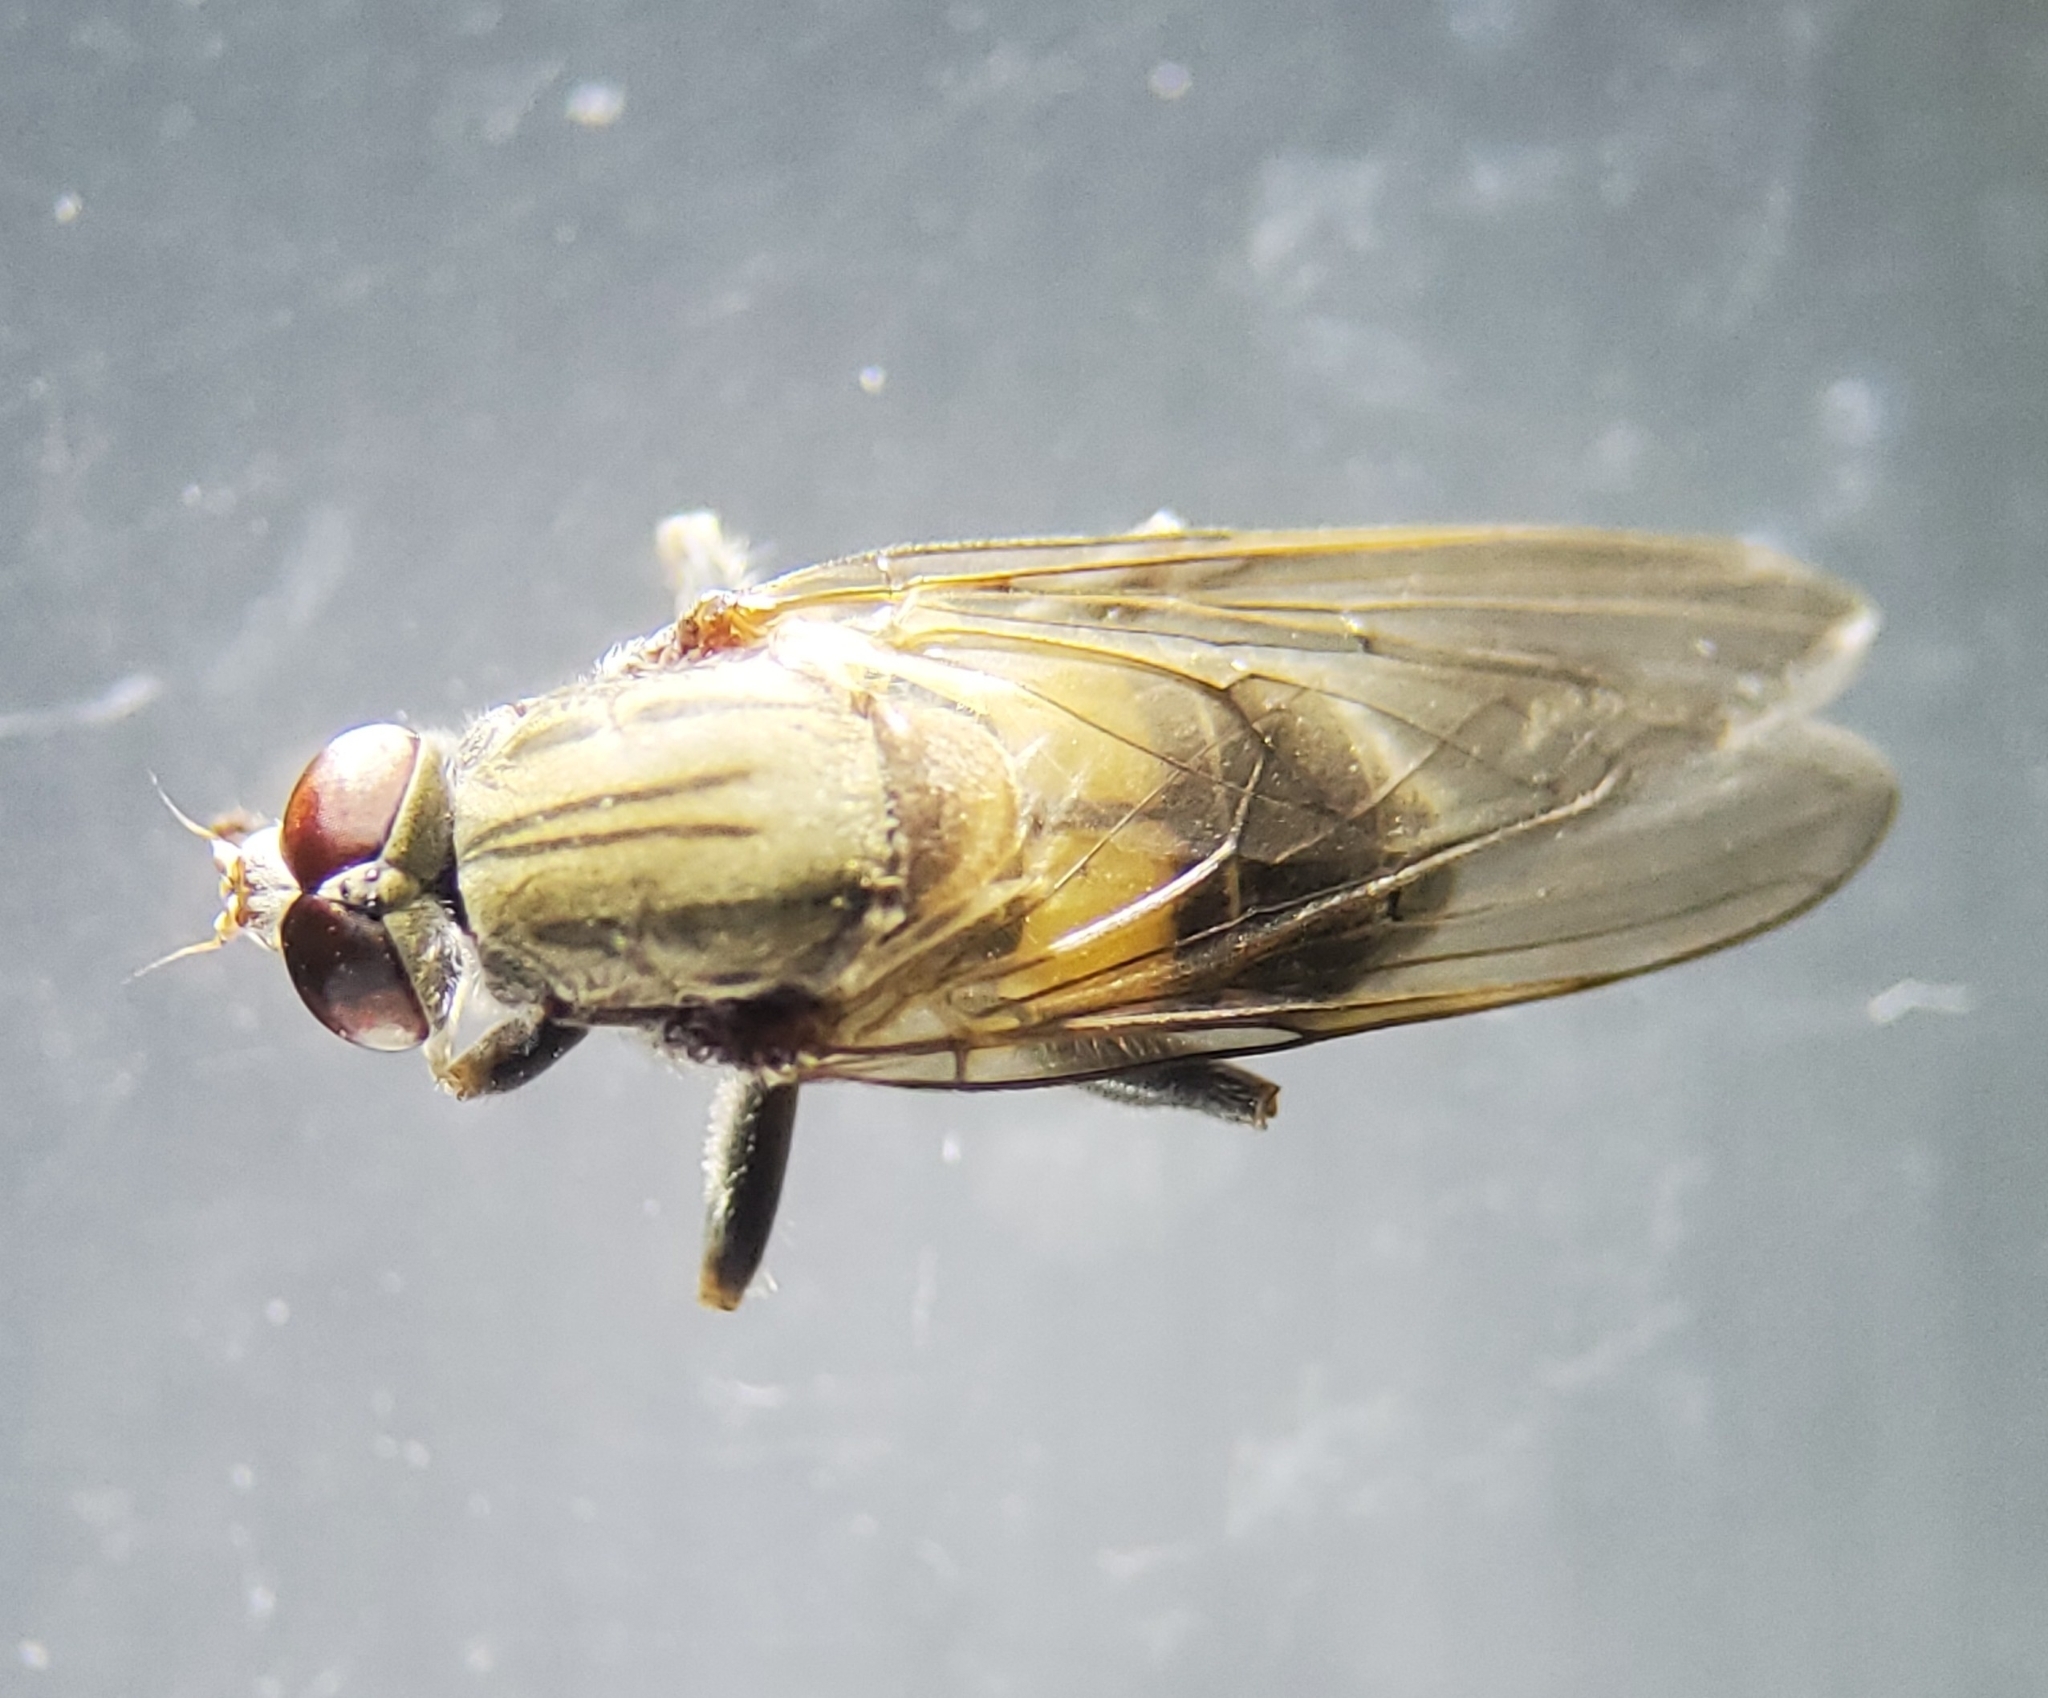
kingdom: Animalia
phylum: Arthropoda
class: Insecta
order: Diptera
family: Syrphidae
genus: Brachyopa
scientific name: Brachyopa vacua
